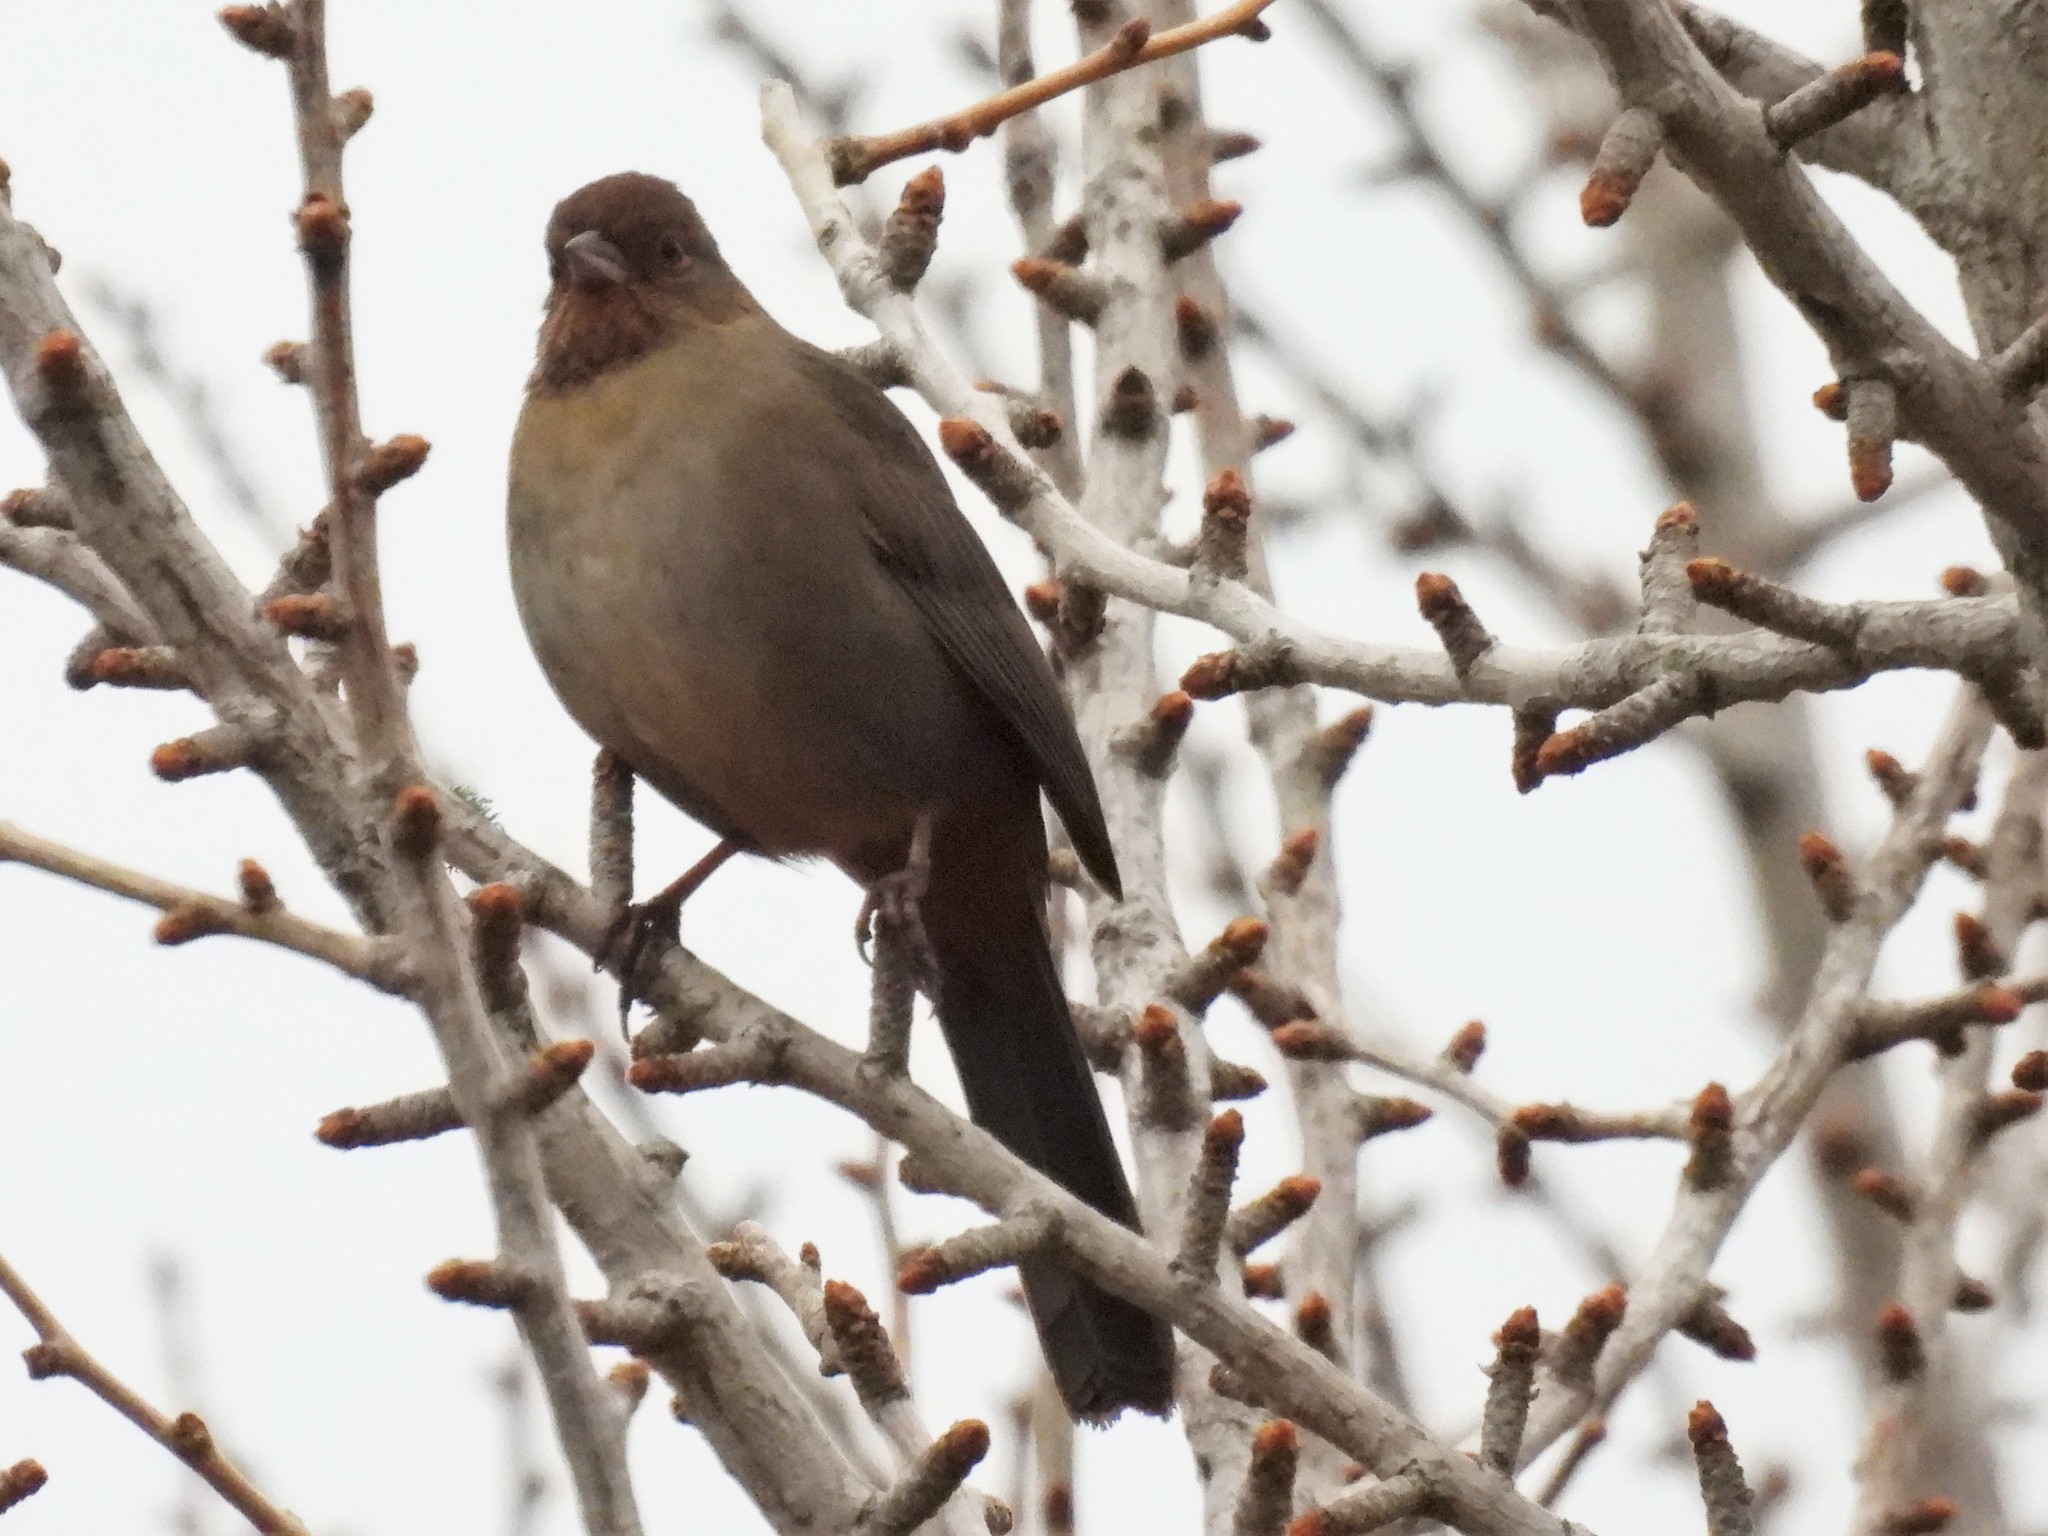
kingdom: Animalia
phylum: Chordata
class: Aves
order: Passeriformes
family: Passerellidae
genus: Melozone
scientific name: Melozone crissalis
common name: California towhee
